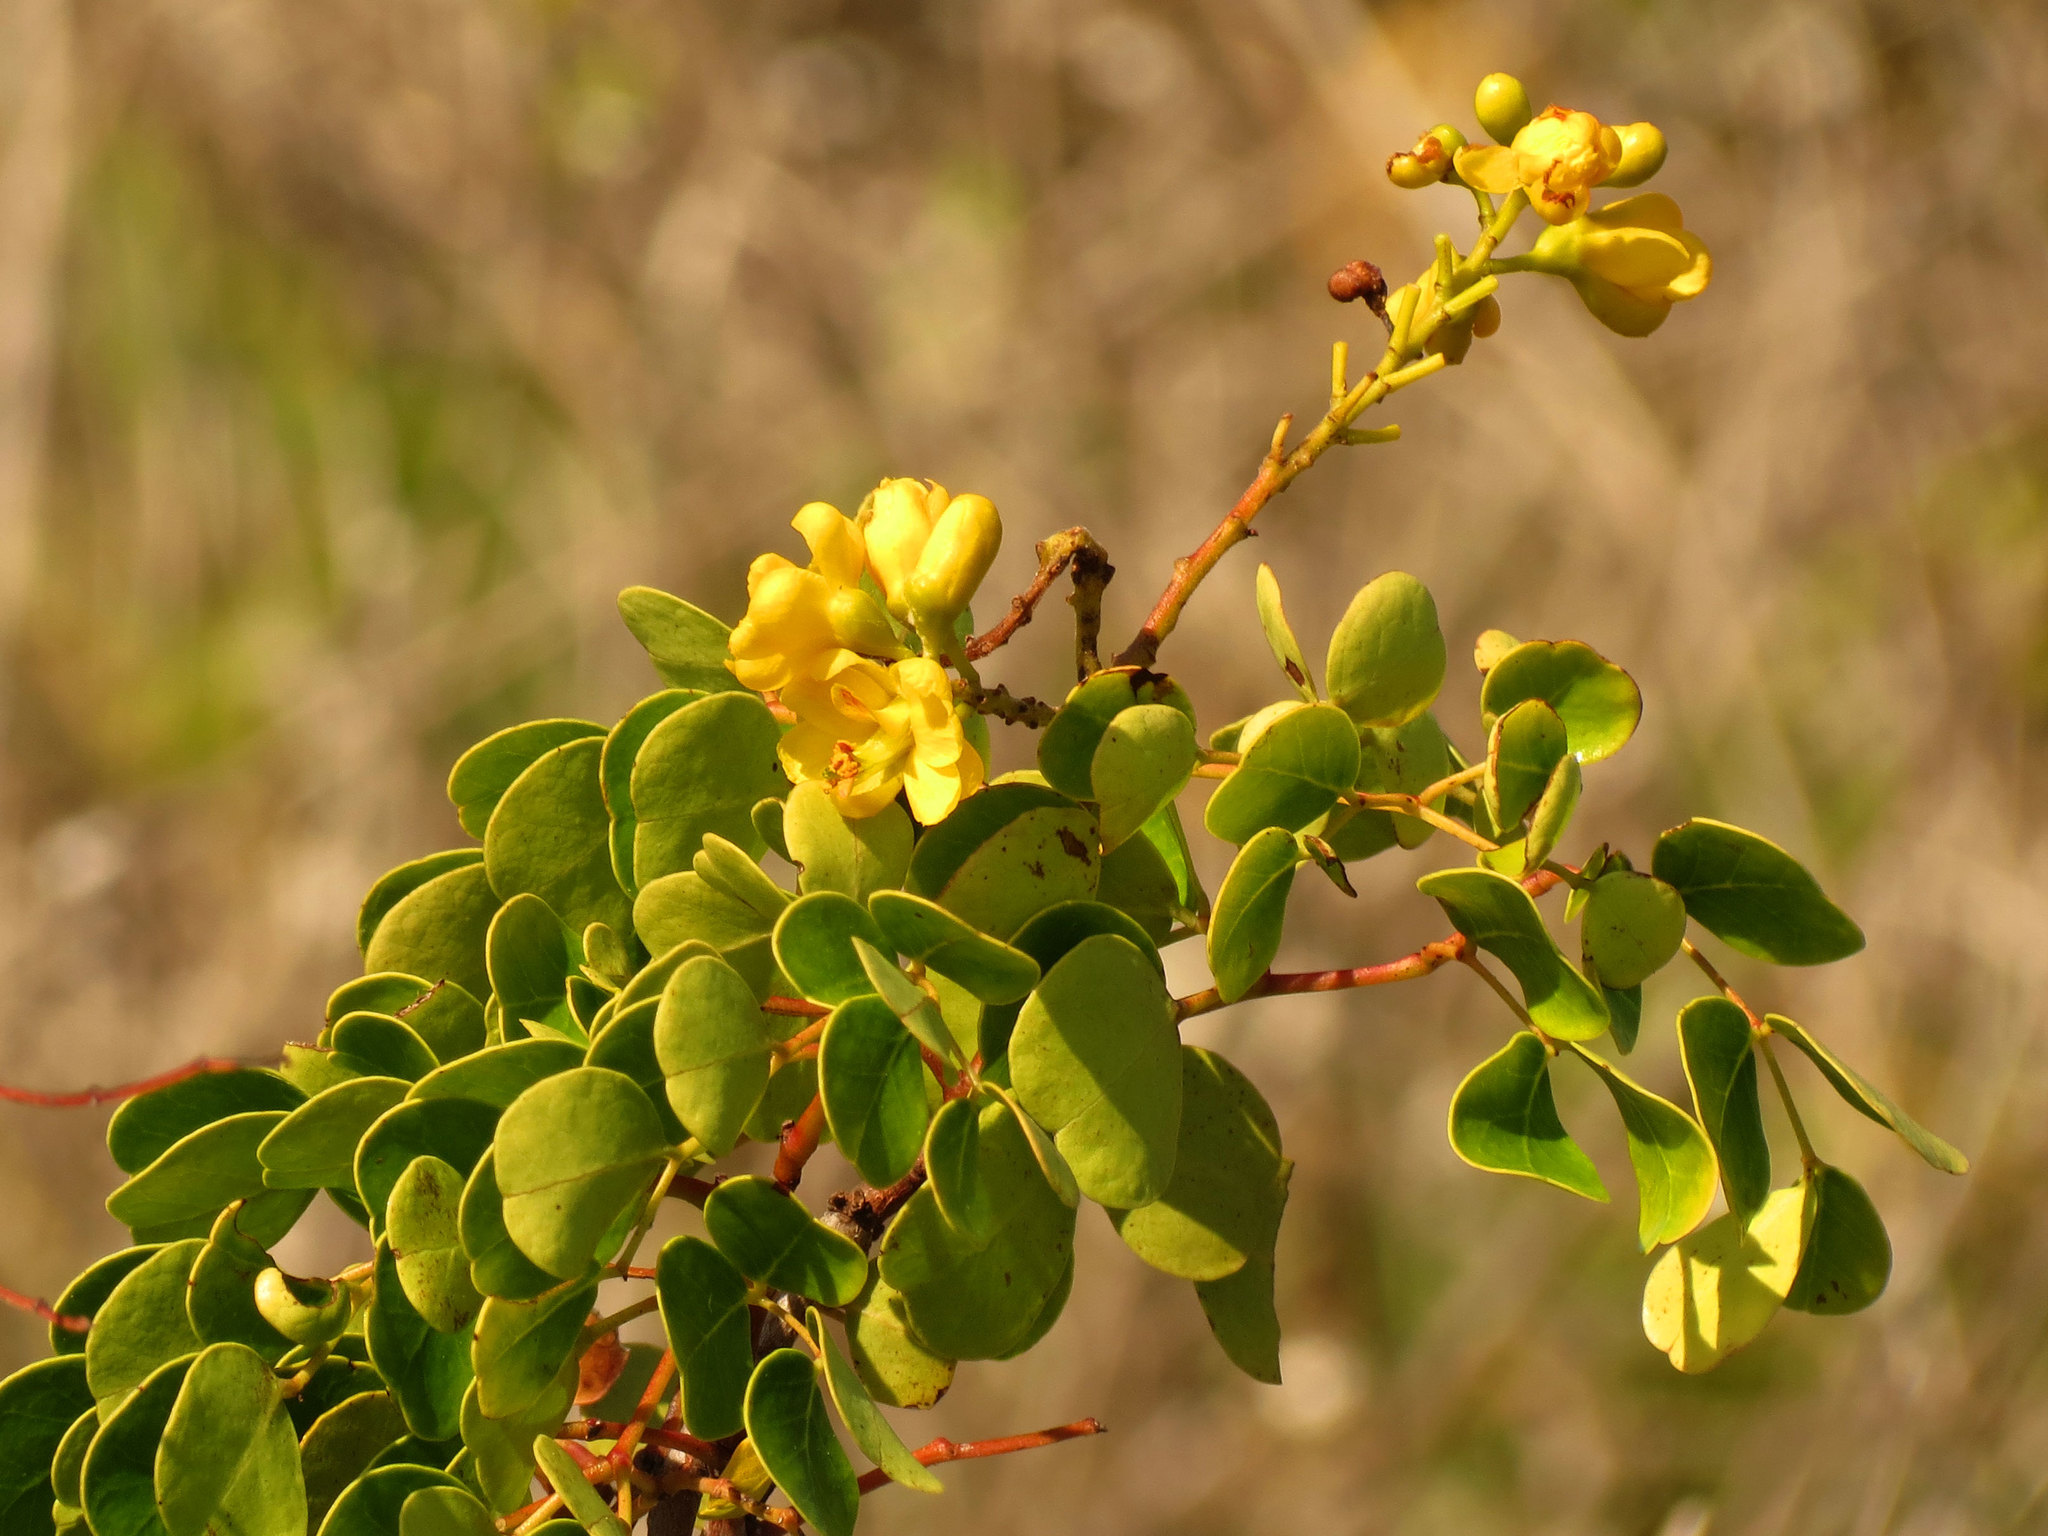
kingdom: Plantae
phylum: Tracheophyta
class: Magnoliopsida
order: Fabales
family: Fabaceae
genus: Tara
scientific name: Tara vesicaria
